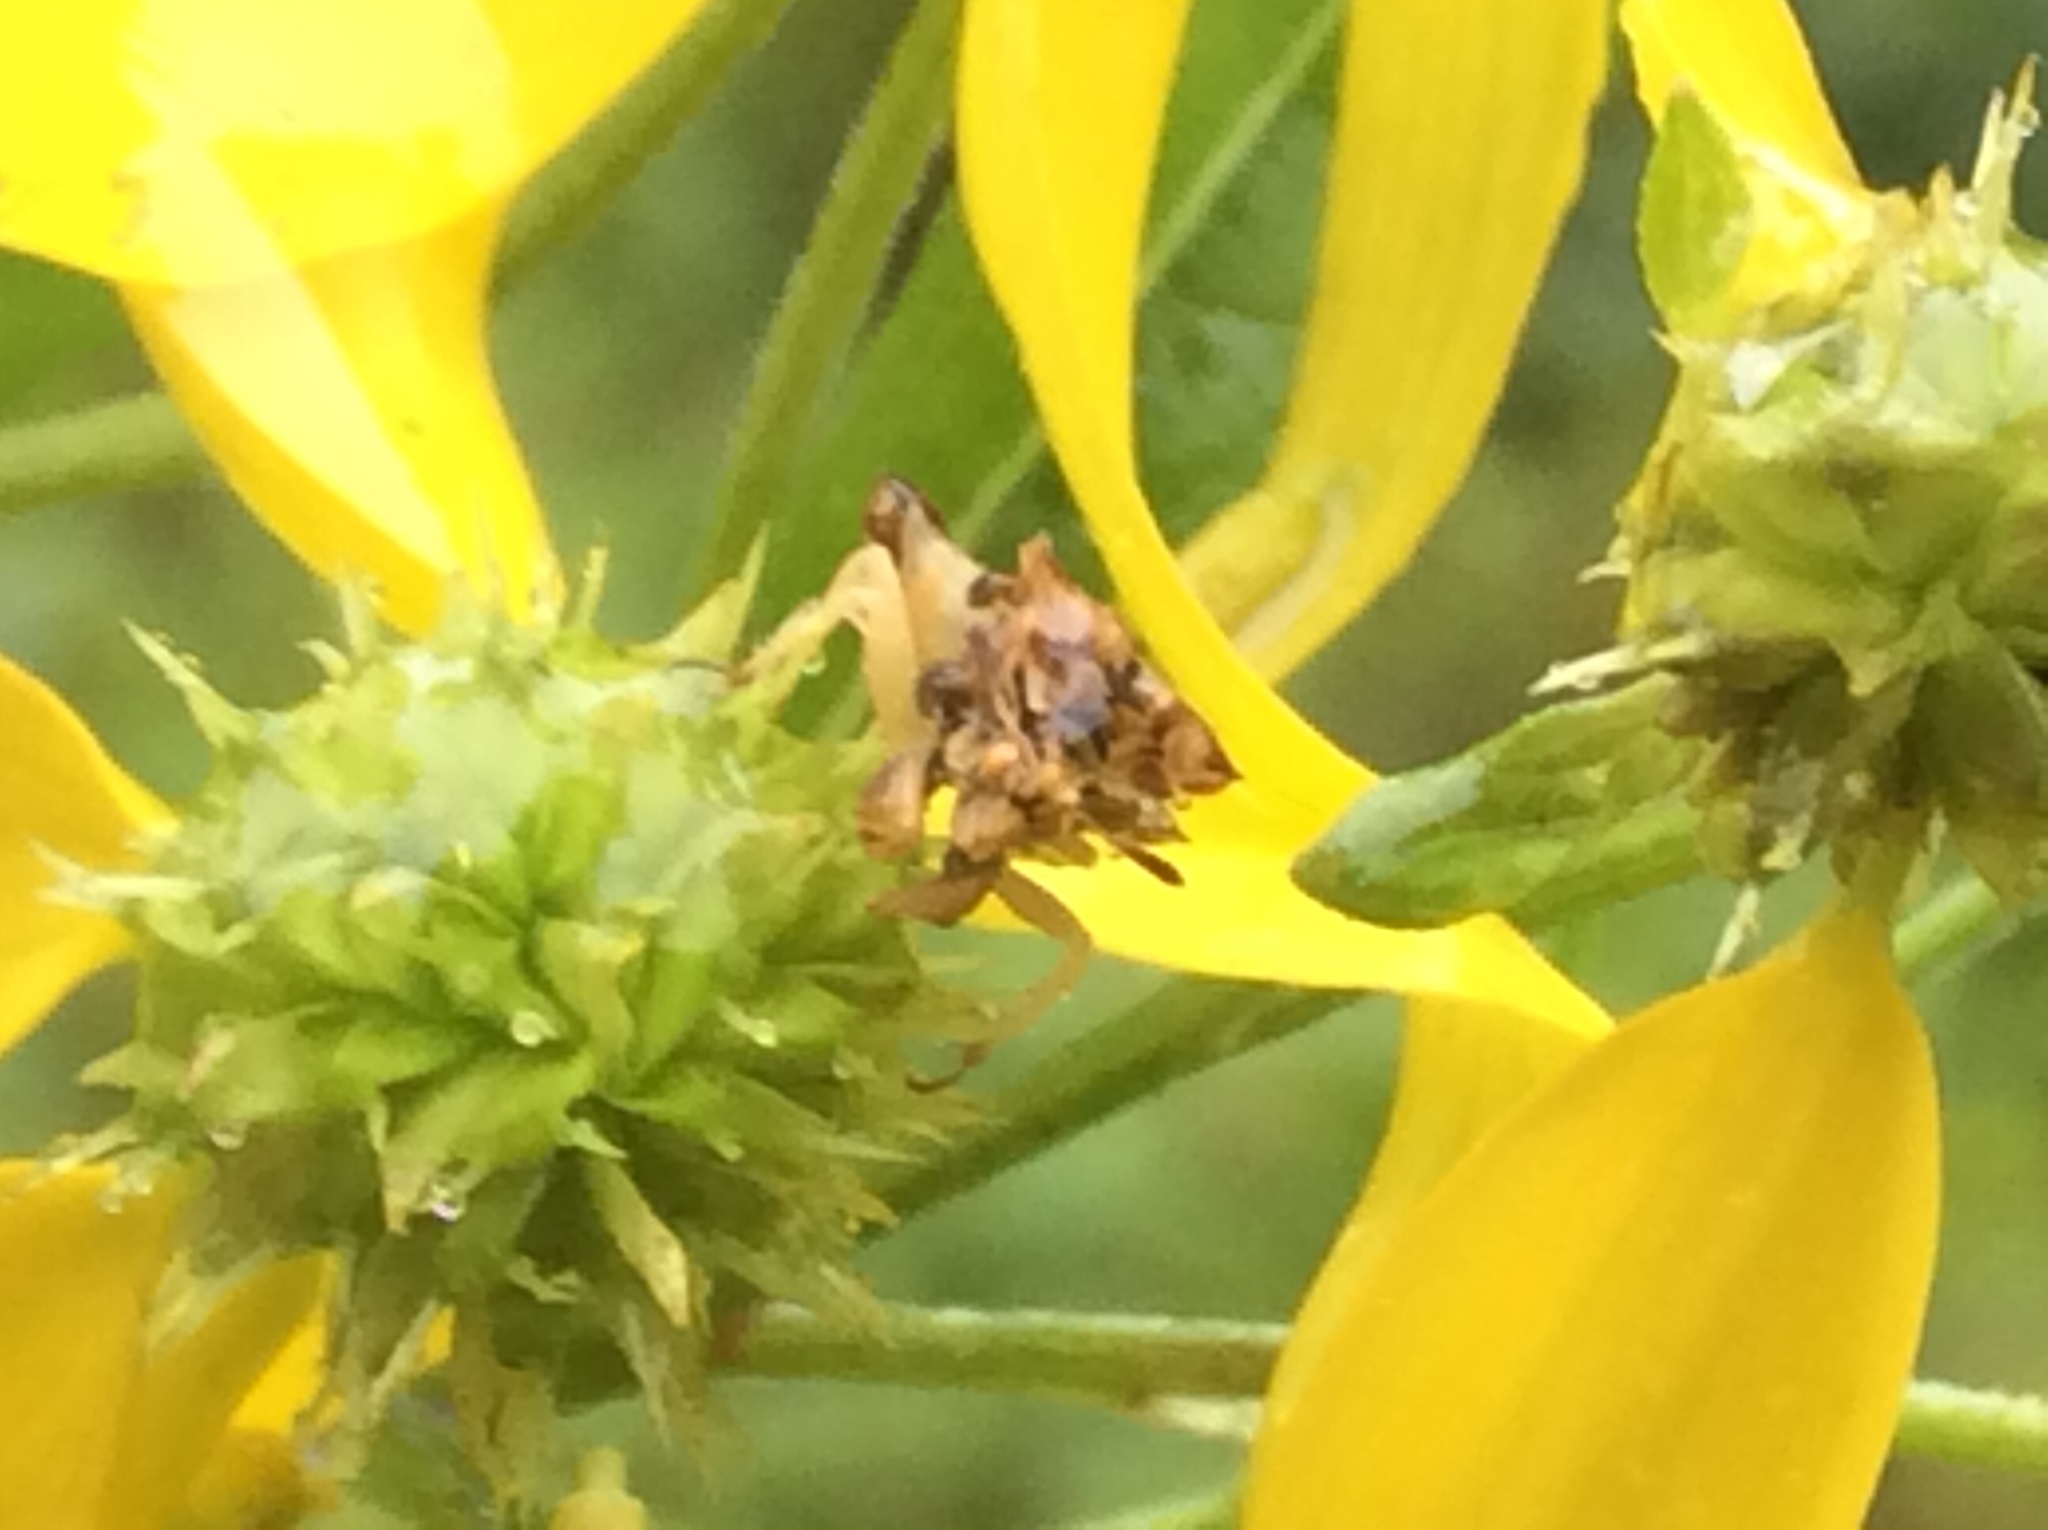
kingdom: Animalia
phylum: Arthropoda
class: Insecta
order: Hemiptera
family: Reduviidae
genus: Phymata
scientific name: Phymata fasciata
